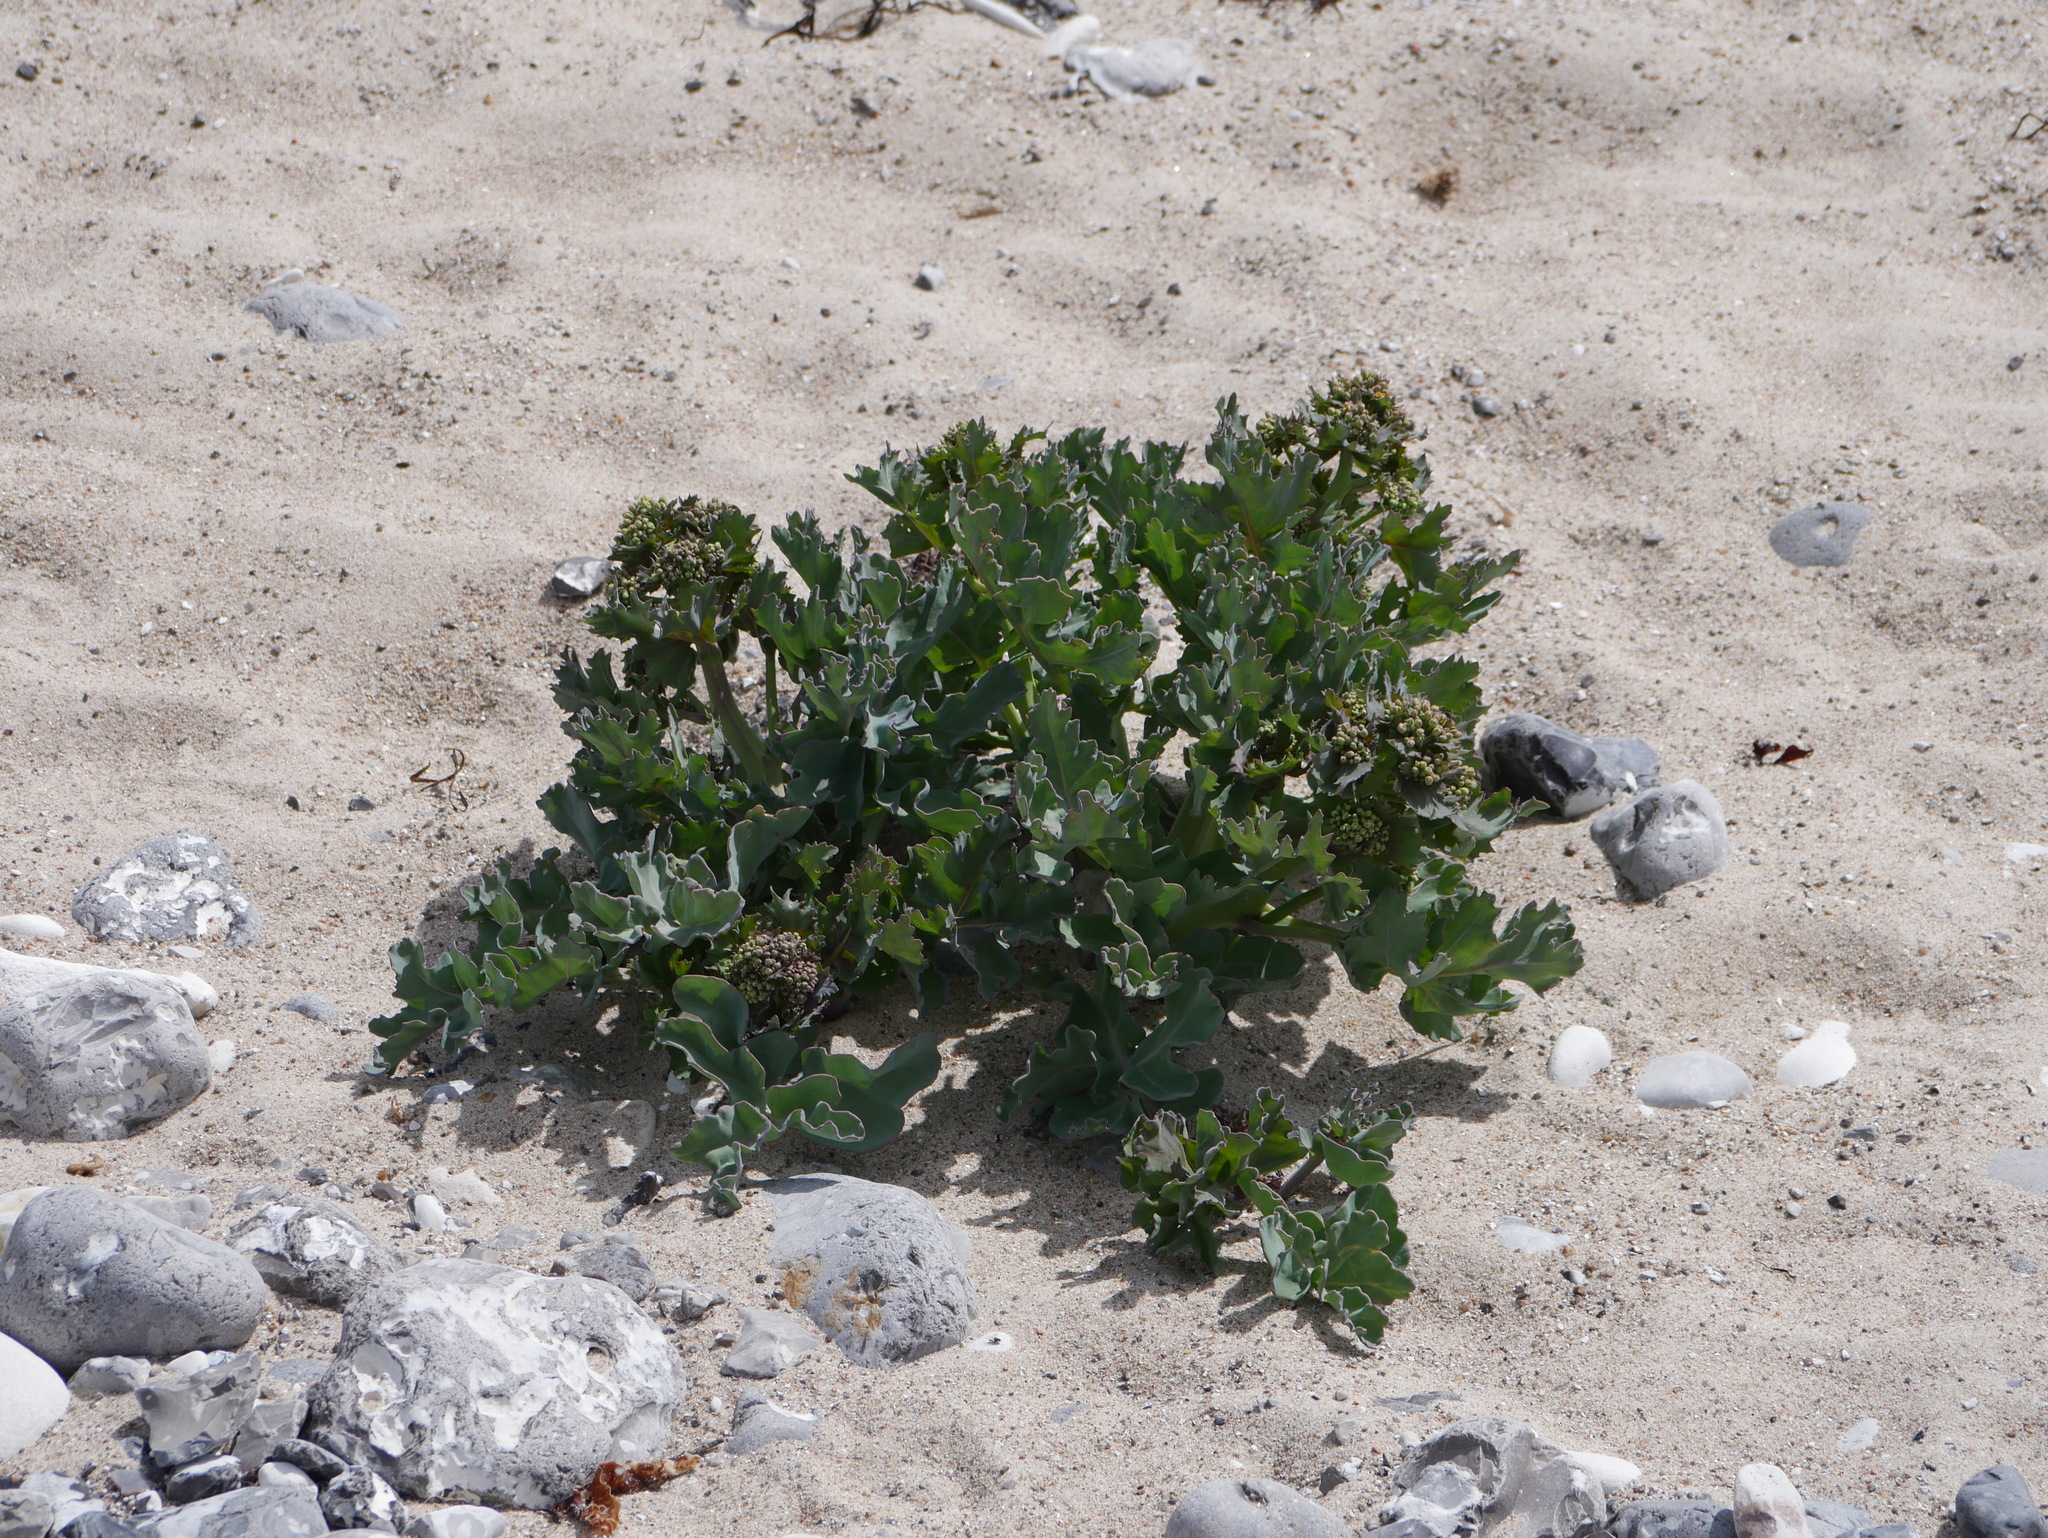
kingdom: Plantae
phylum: Tracheophyta
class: Magnoliopsida
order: Brassicales
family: Brassicaceae
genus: Crambe
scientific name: Crambe maritima
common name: Sea-kale
